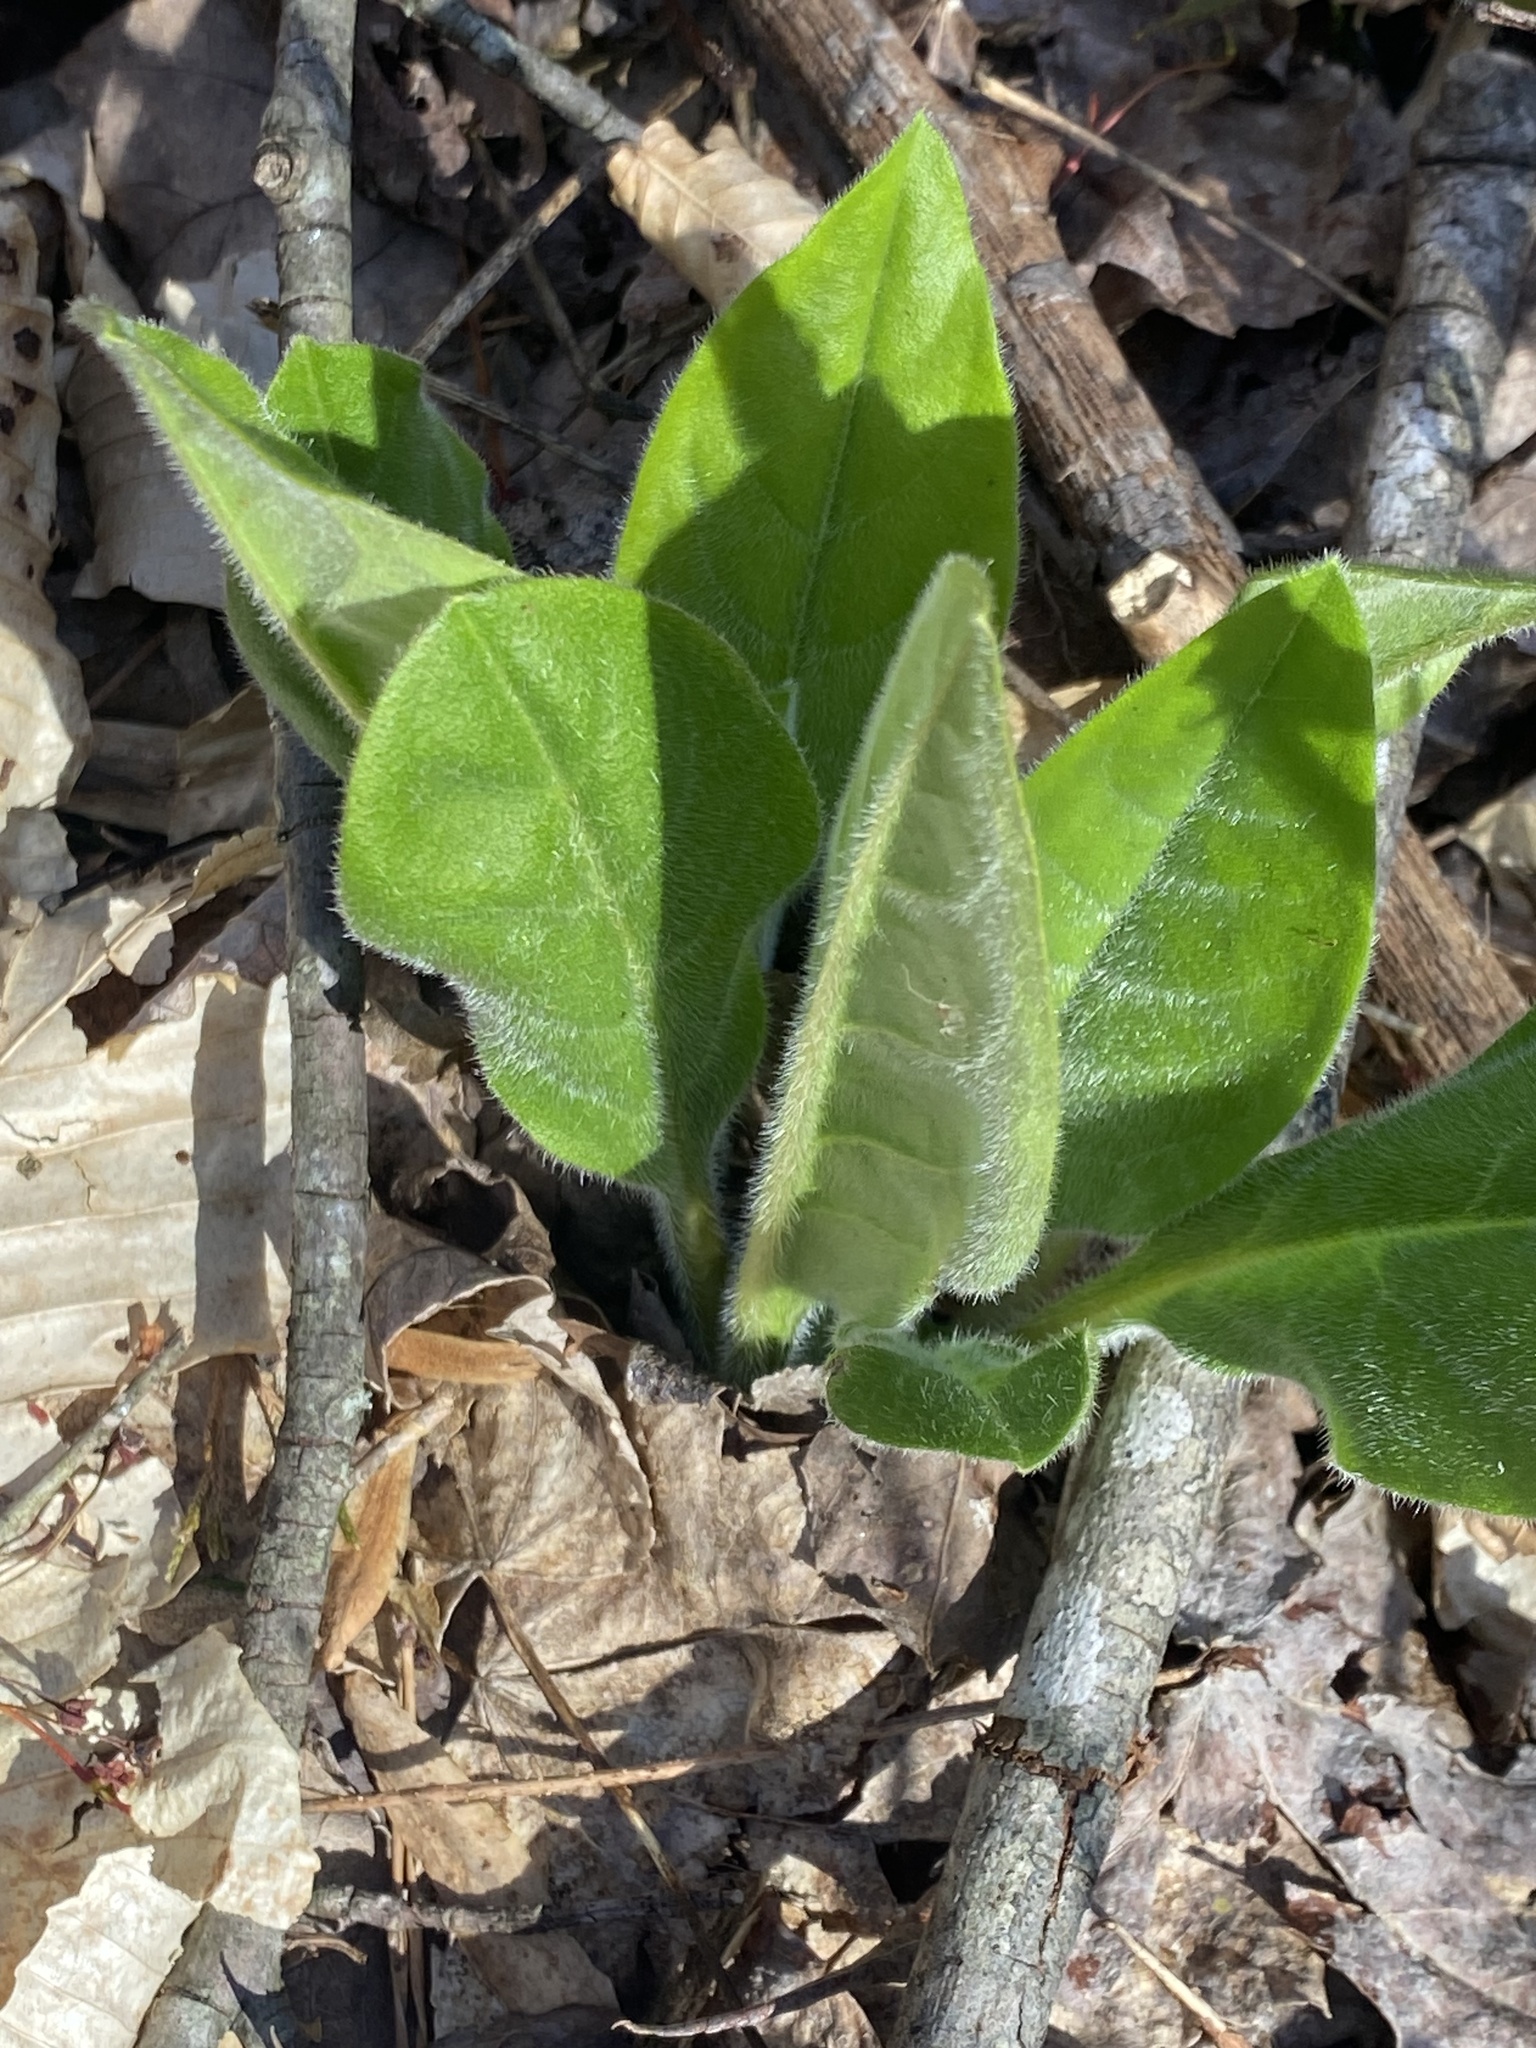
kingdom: Plantae
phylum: Tracheophyta
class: Magnoliopsida
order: Boraginales
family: Boraginaceae
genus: Andersonglossum
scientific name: Andersonglossum virginianum
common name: Wild comfrey
